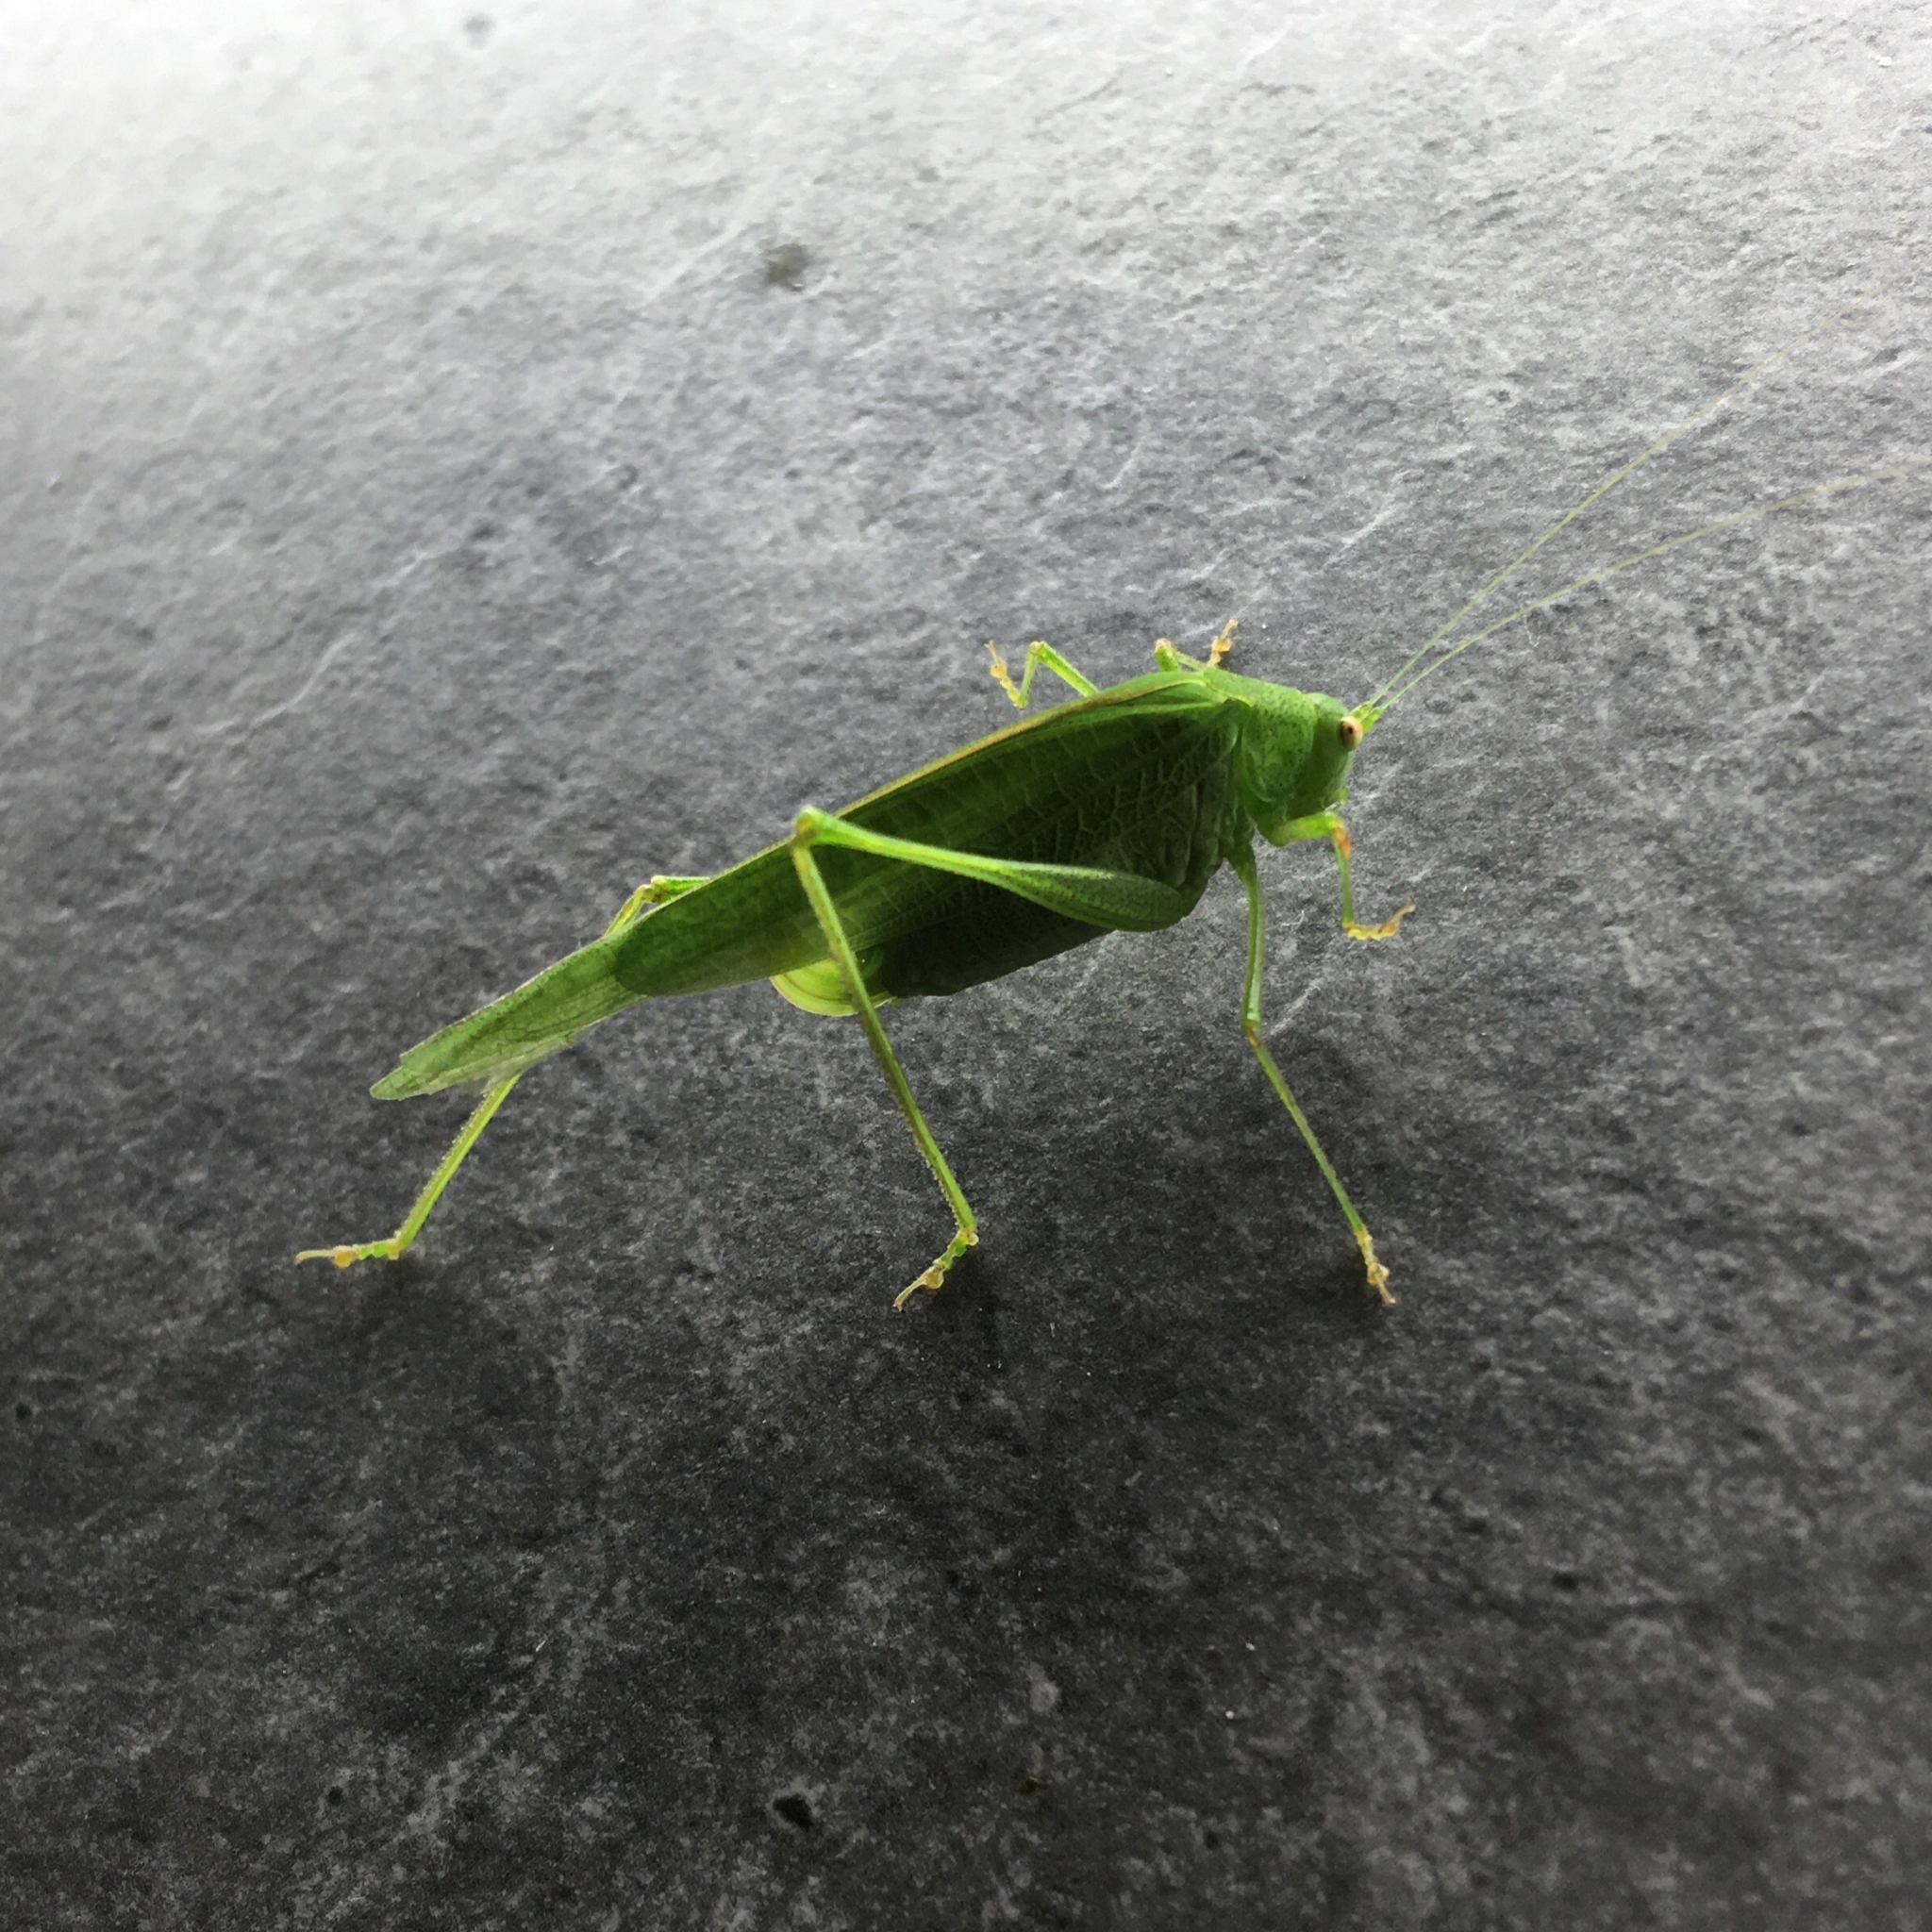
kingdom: Animalia
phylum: Arthropoda
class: Insecta
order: Orthoptera
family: Tettigoniidae
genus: Phaneroptera
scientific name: Phaneroptera nana
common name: Southern sickle bush-cricket
